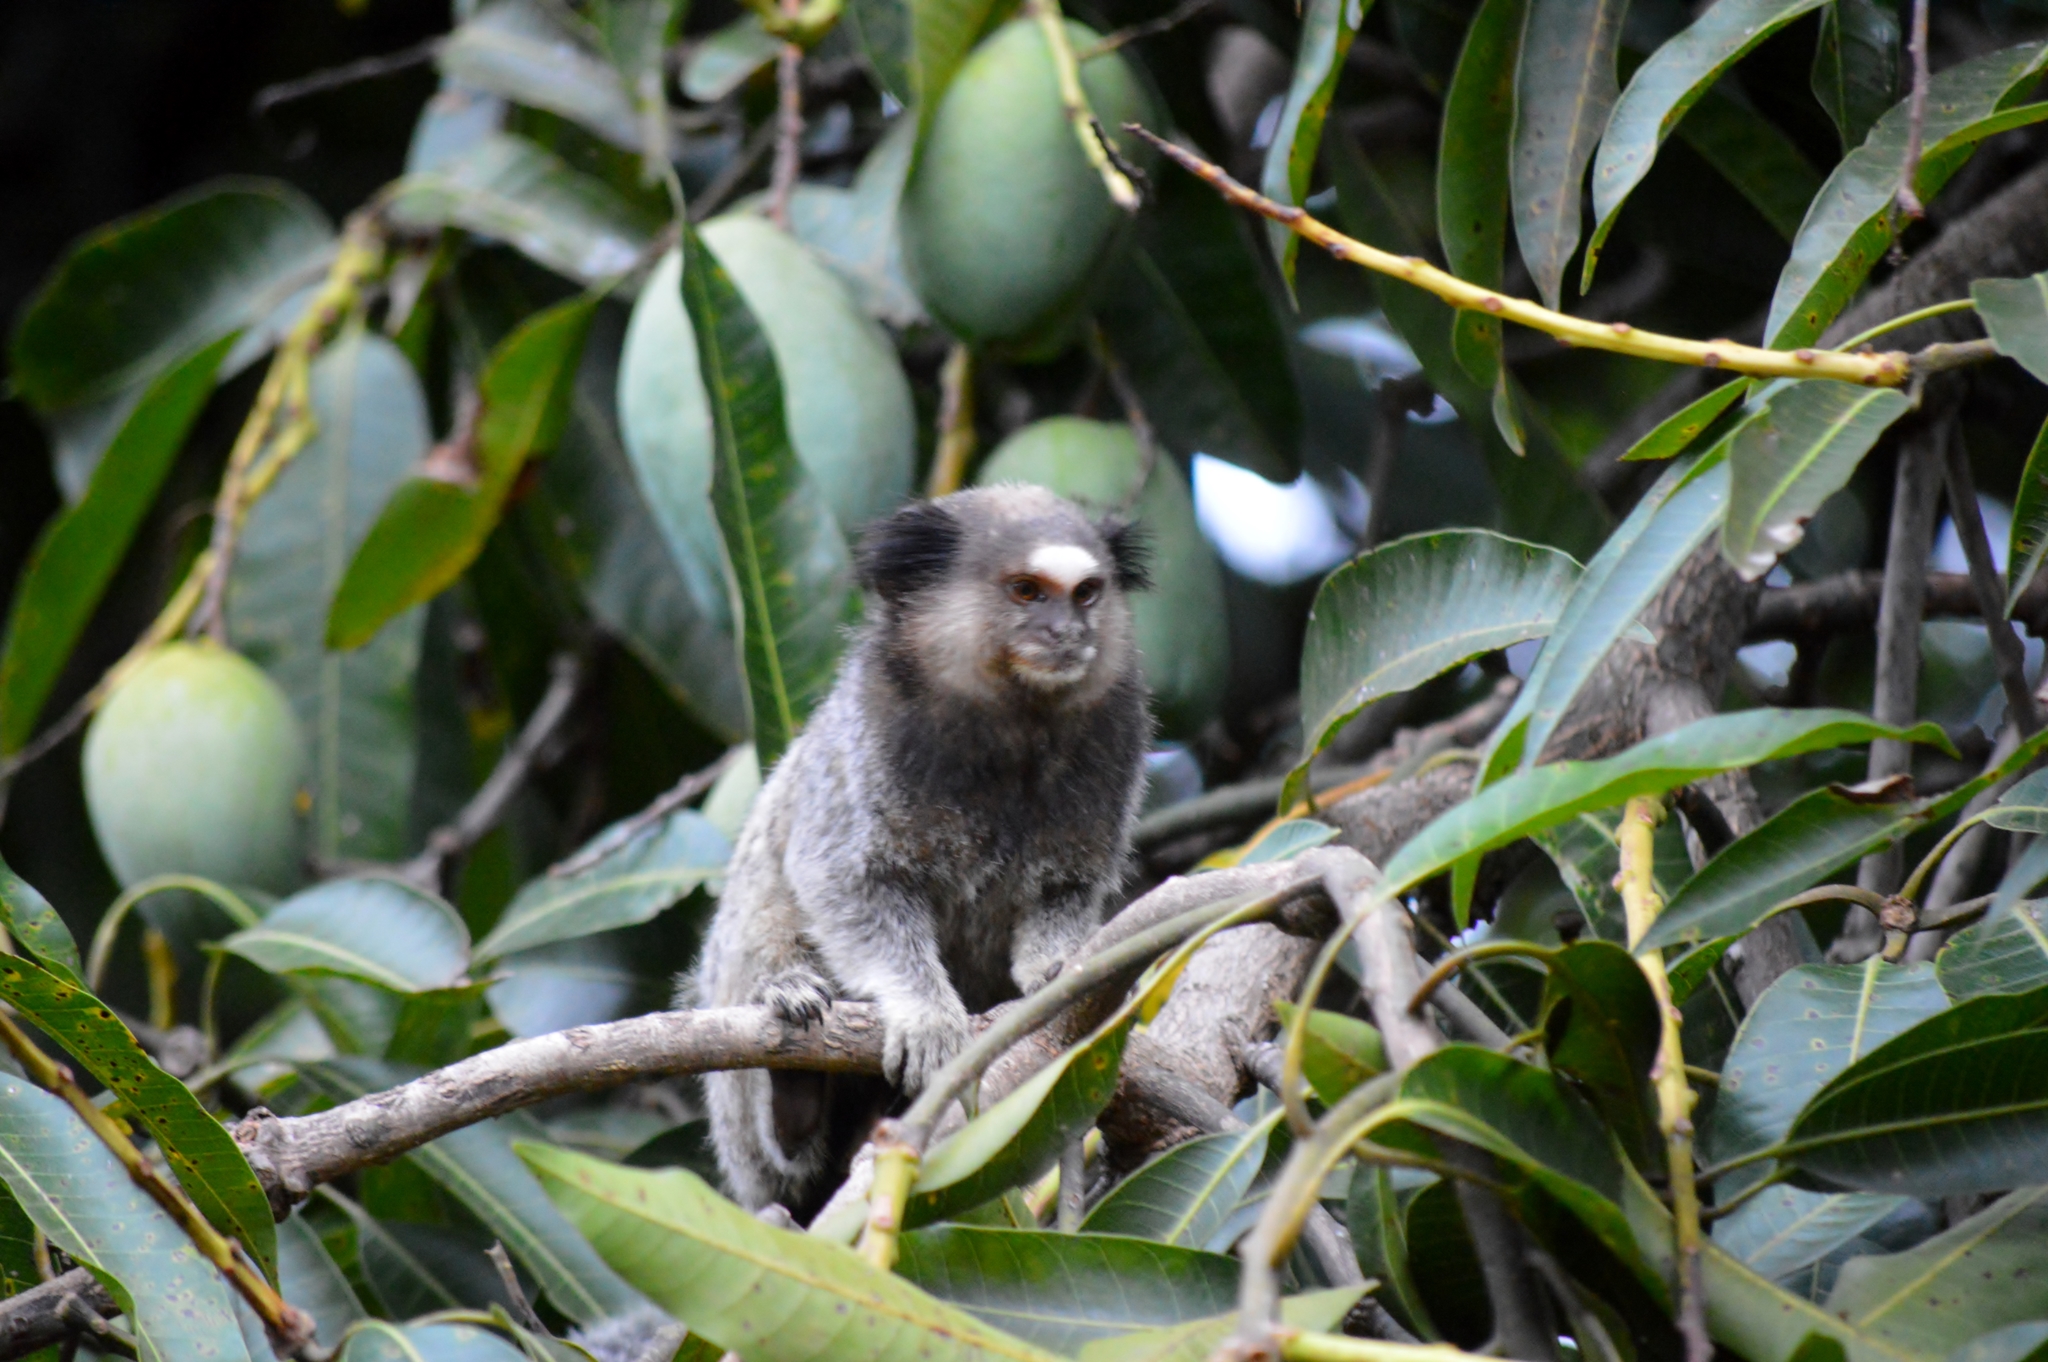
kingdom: Animalia
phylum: Chordata
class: Mammalia
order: Primates
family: Callitrichidae
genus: Callithrix
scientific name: Callithrix penicillata
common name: Black-tufted marmoset
